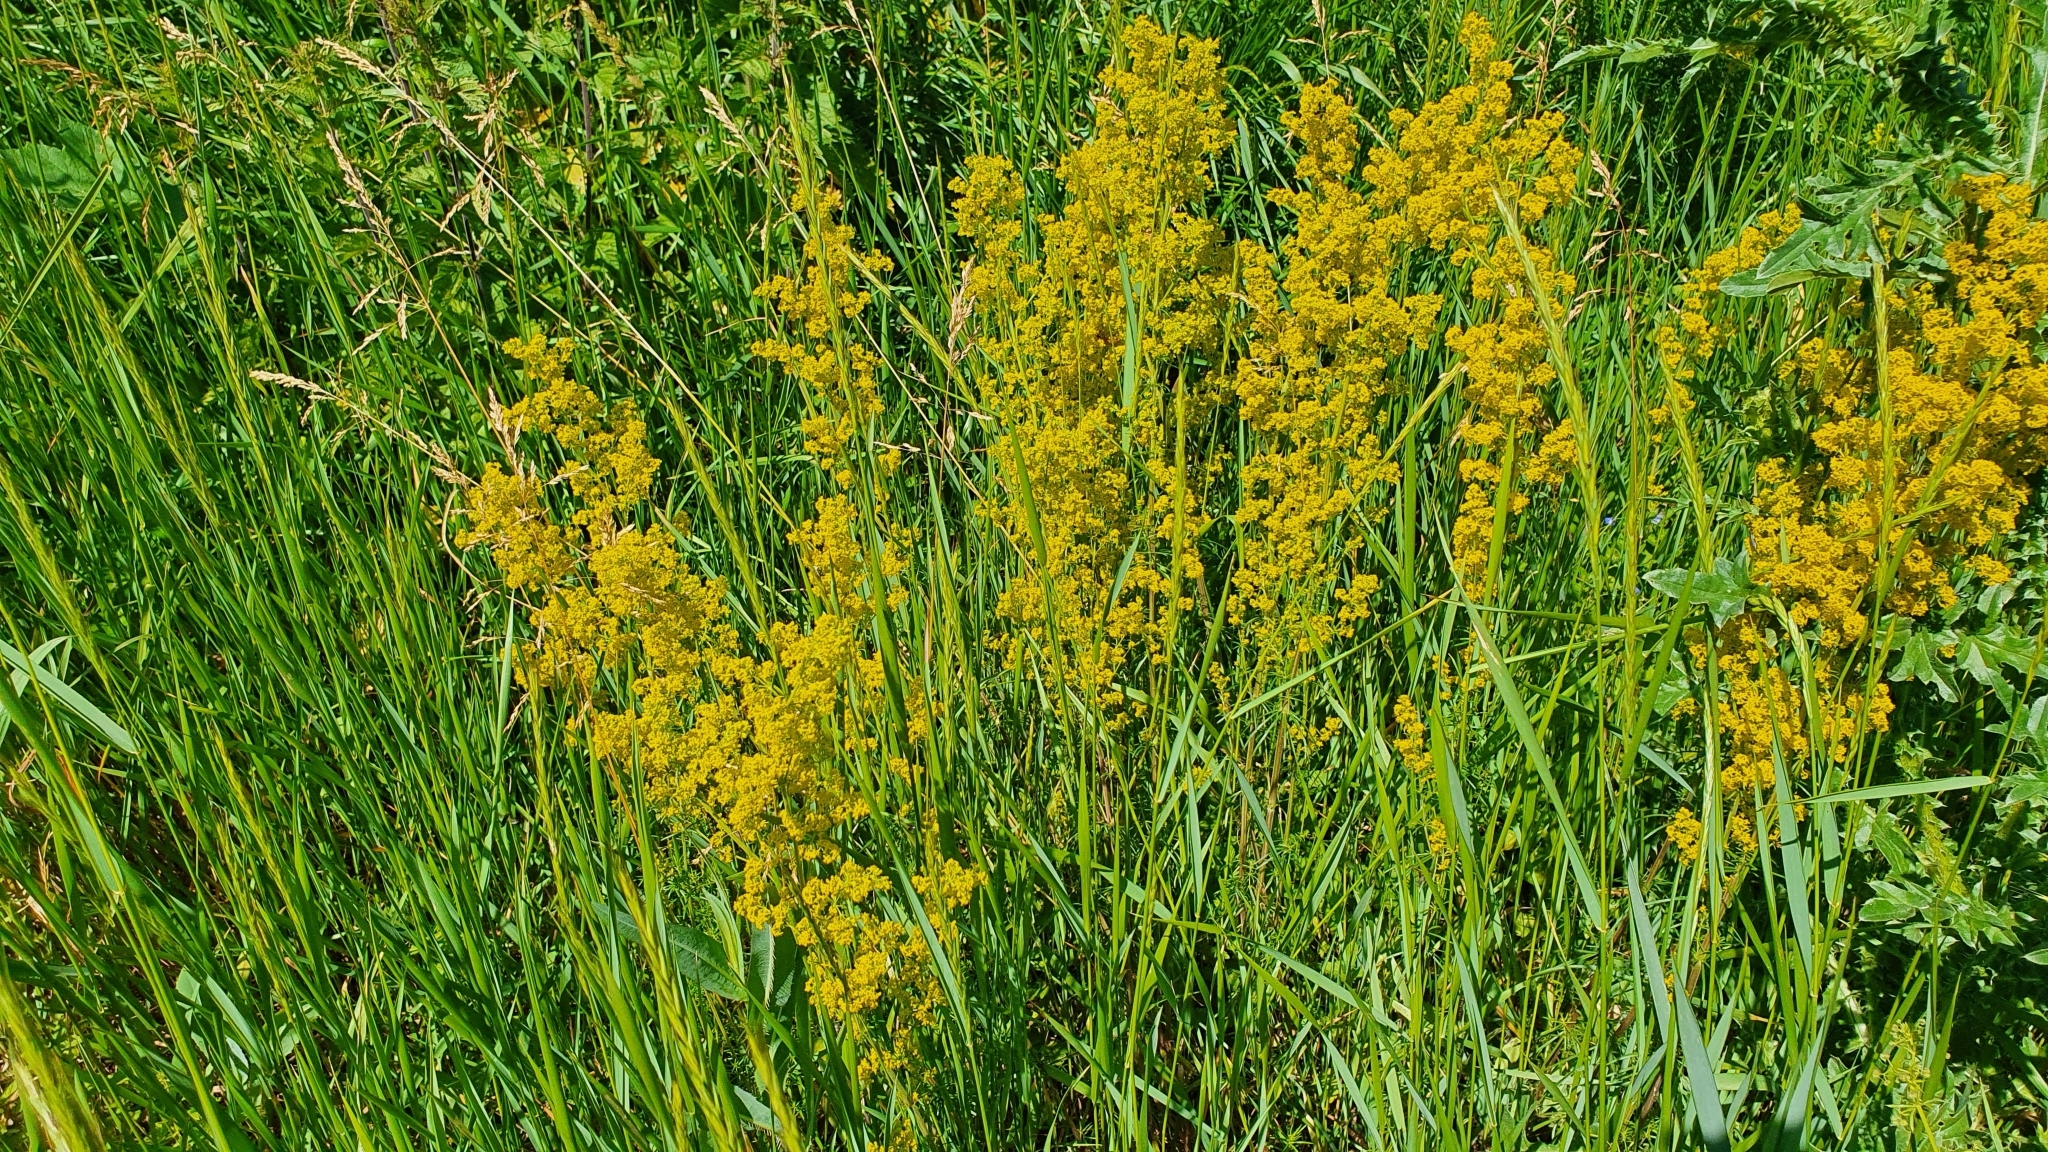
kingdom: Plantae
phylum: Tracheophyta
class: Magnoliopsida
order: Gentianales
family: Rubiaceae
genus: Galium
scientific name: Galium verum
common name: Lady's bedstraw
